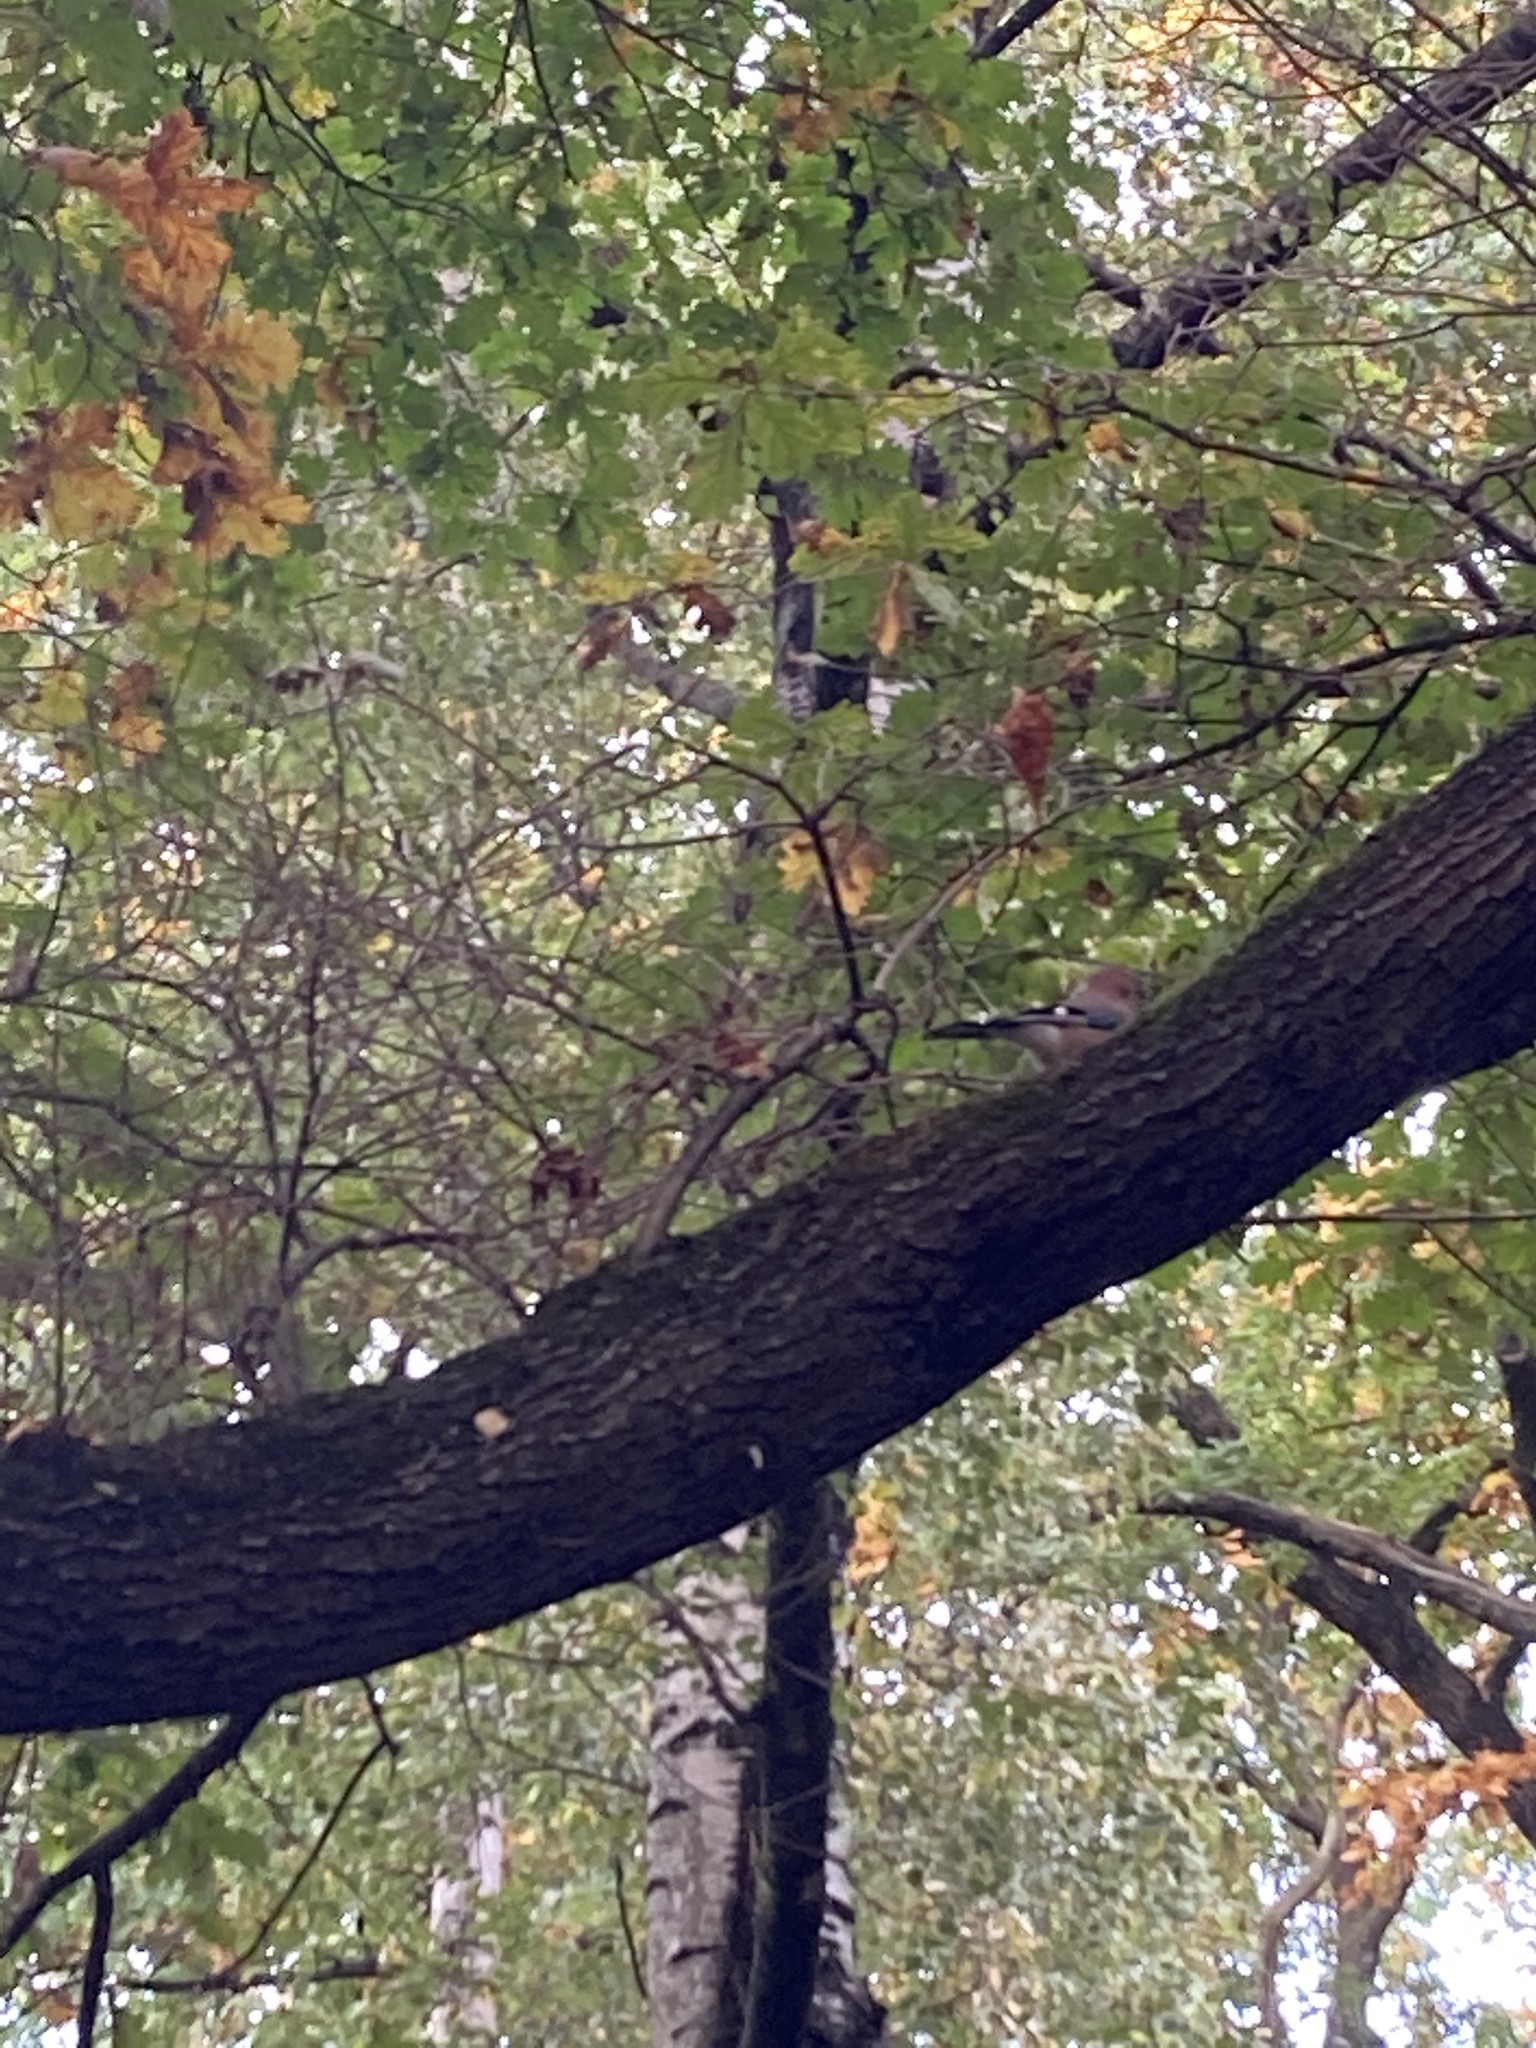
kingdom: Animalia
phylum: Chordata
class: Aves
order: Passeriformes
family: Corvidae
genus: Garrulus
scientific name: Garrulus glandarius
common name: Eurasian jay
